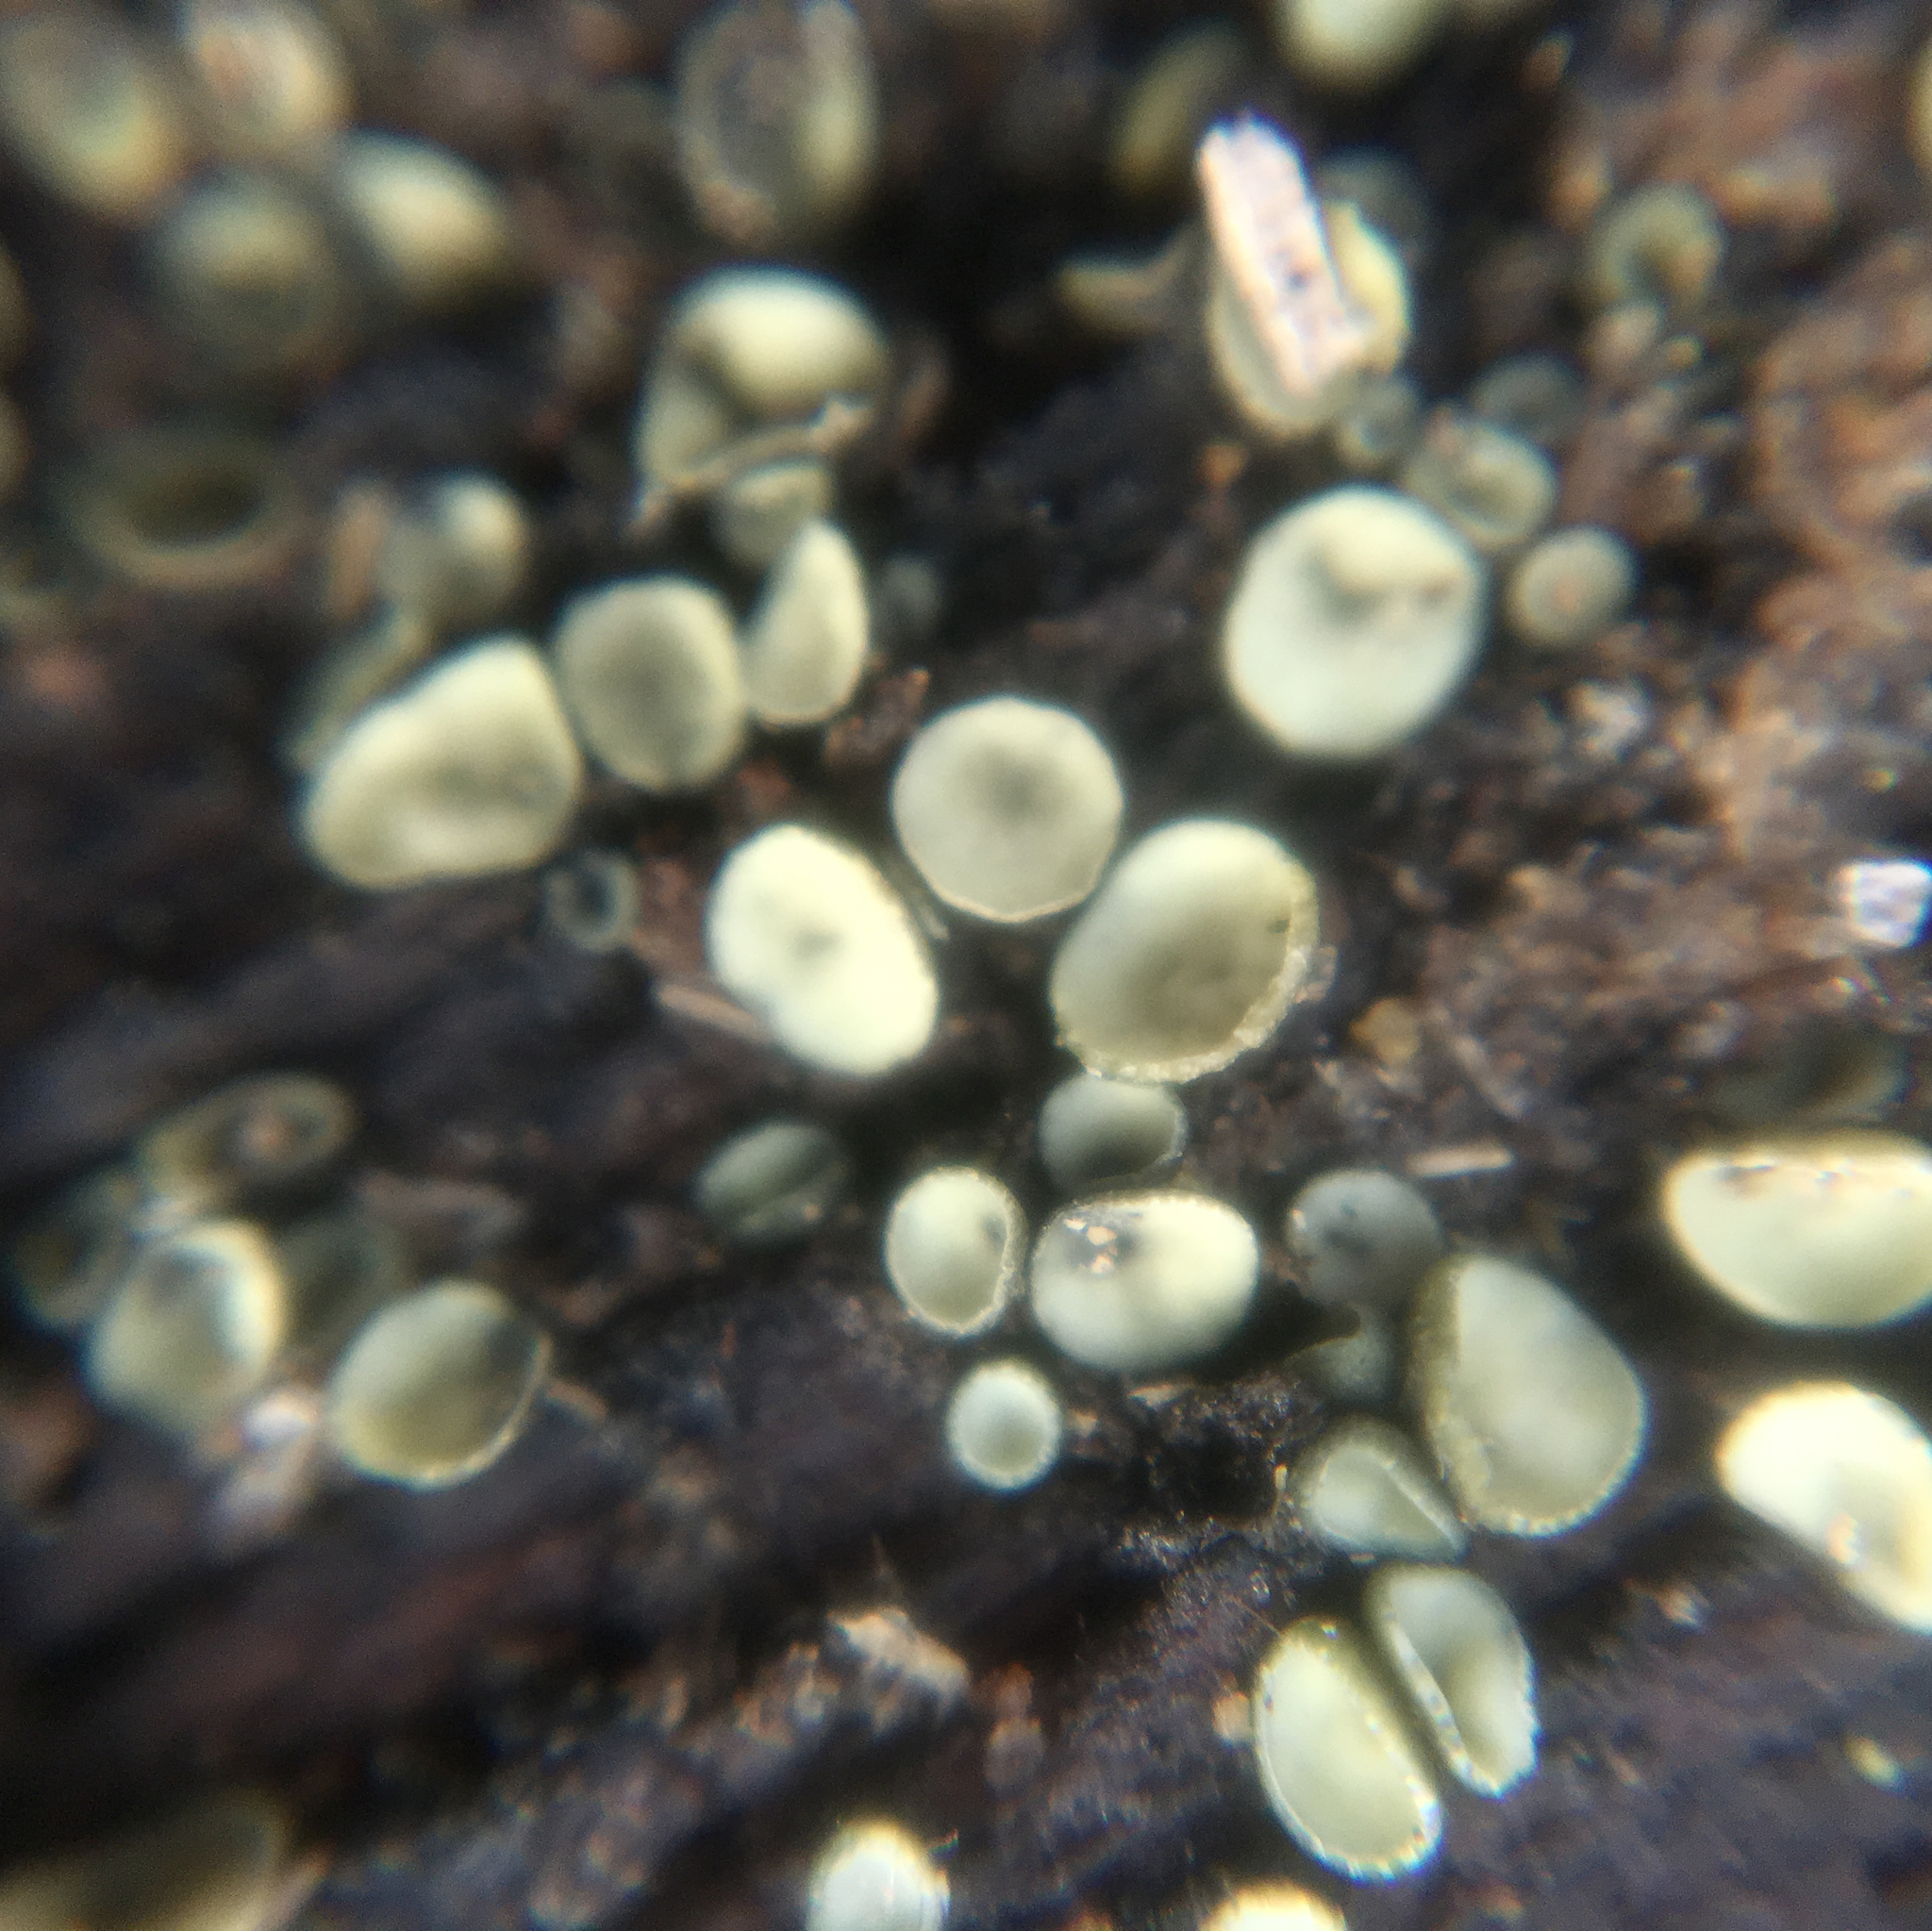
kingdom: Fungi
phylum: Ascomycota
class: Leotiomycetes
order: Helotiales
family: Chlorospleniaceae
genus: Chlorosplenium
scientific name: Chlorosplenium chlora
